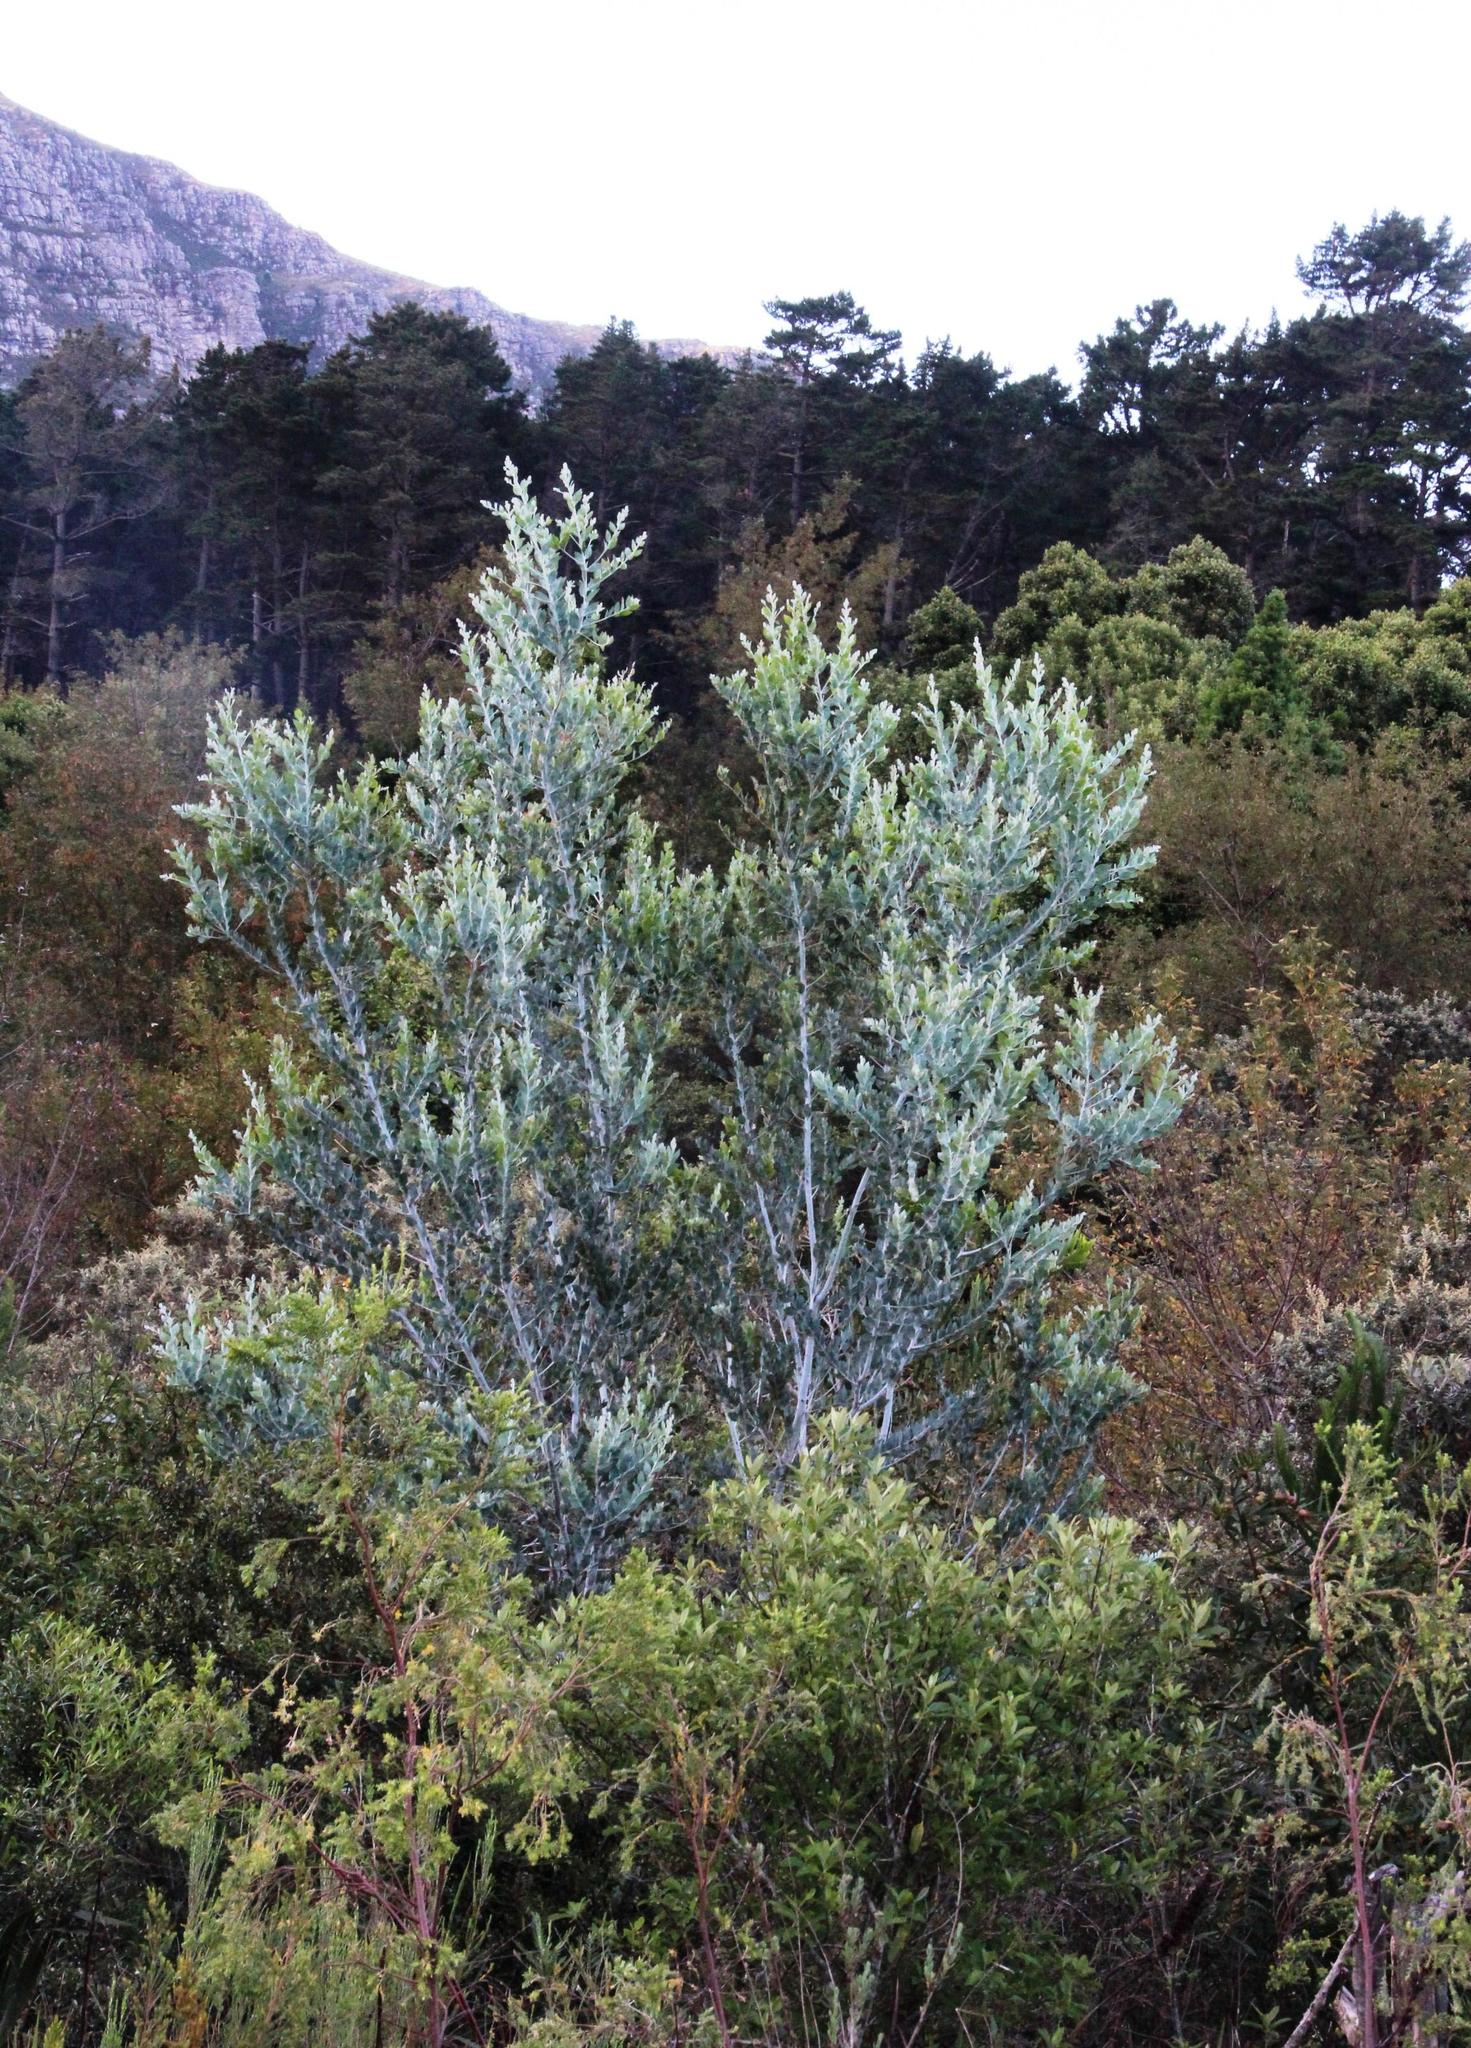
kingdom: Plantae
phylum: Tracheophyta
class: Magnoliopsida
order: Fabales
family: Fabaceae
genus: Acacia
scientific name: Acacia podalyriifolia
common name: Pearl wattle
